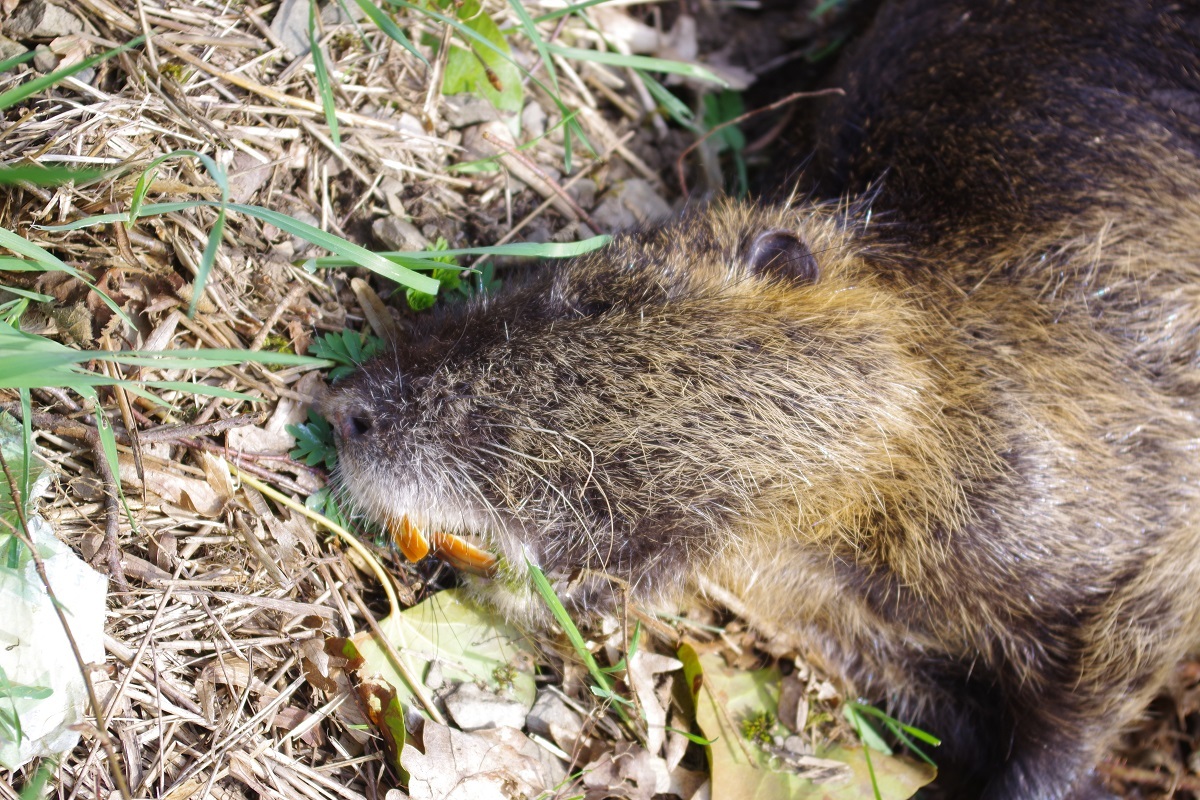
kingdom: Animalia
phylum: Chordata
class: Mammalia
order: Rodentia
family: Myocastoridae
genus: Myocastor
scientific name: Myocastor coypus
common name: Coypu
